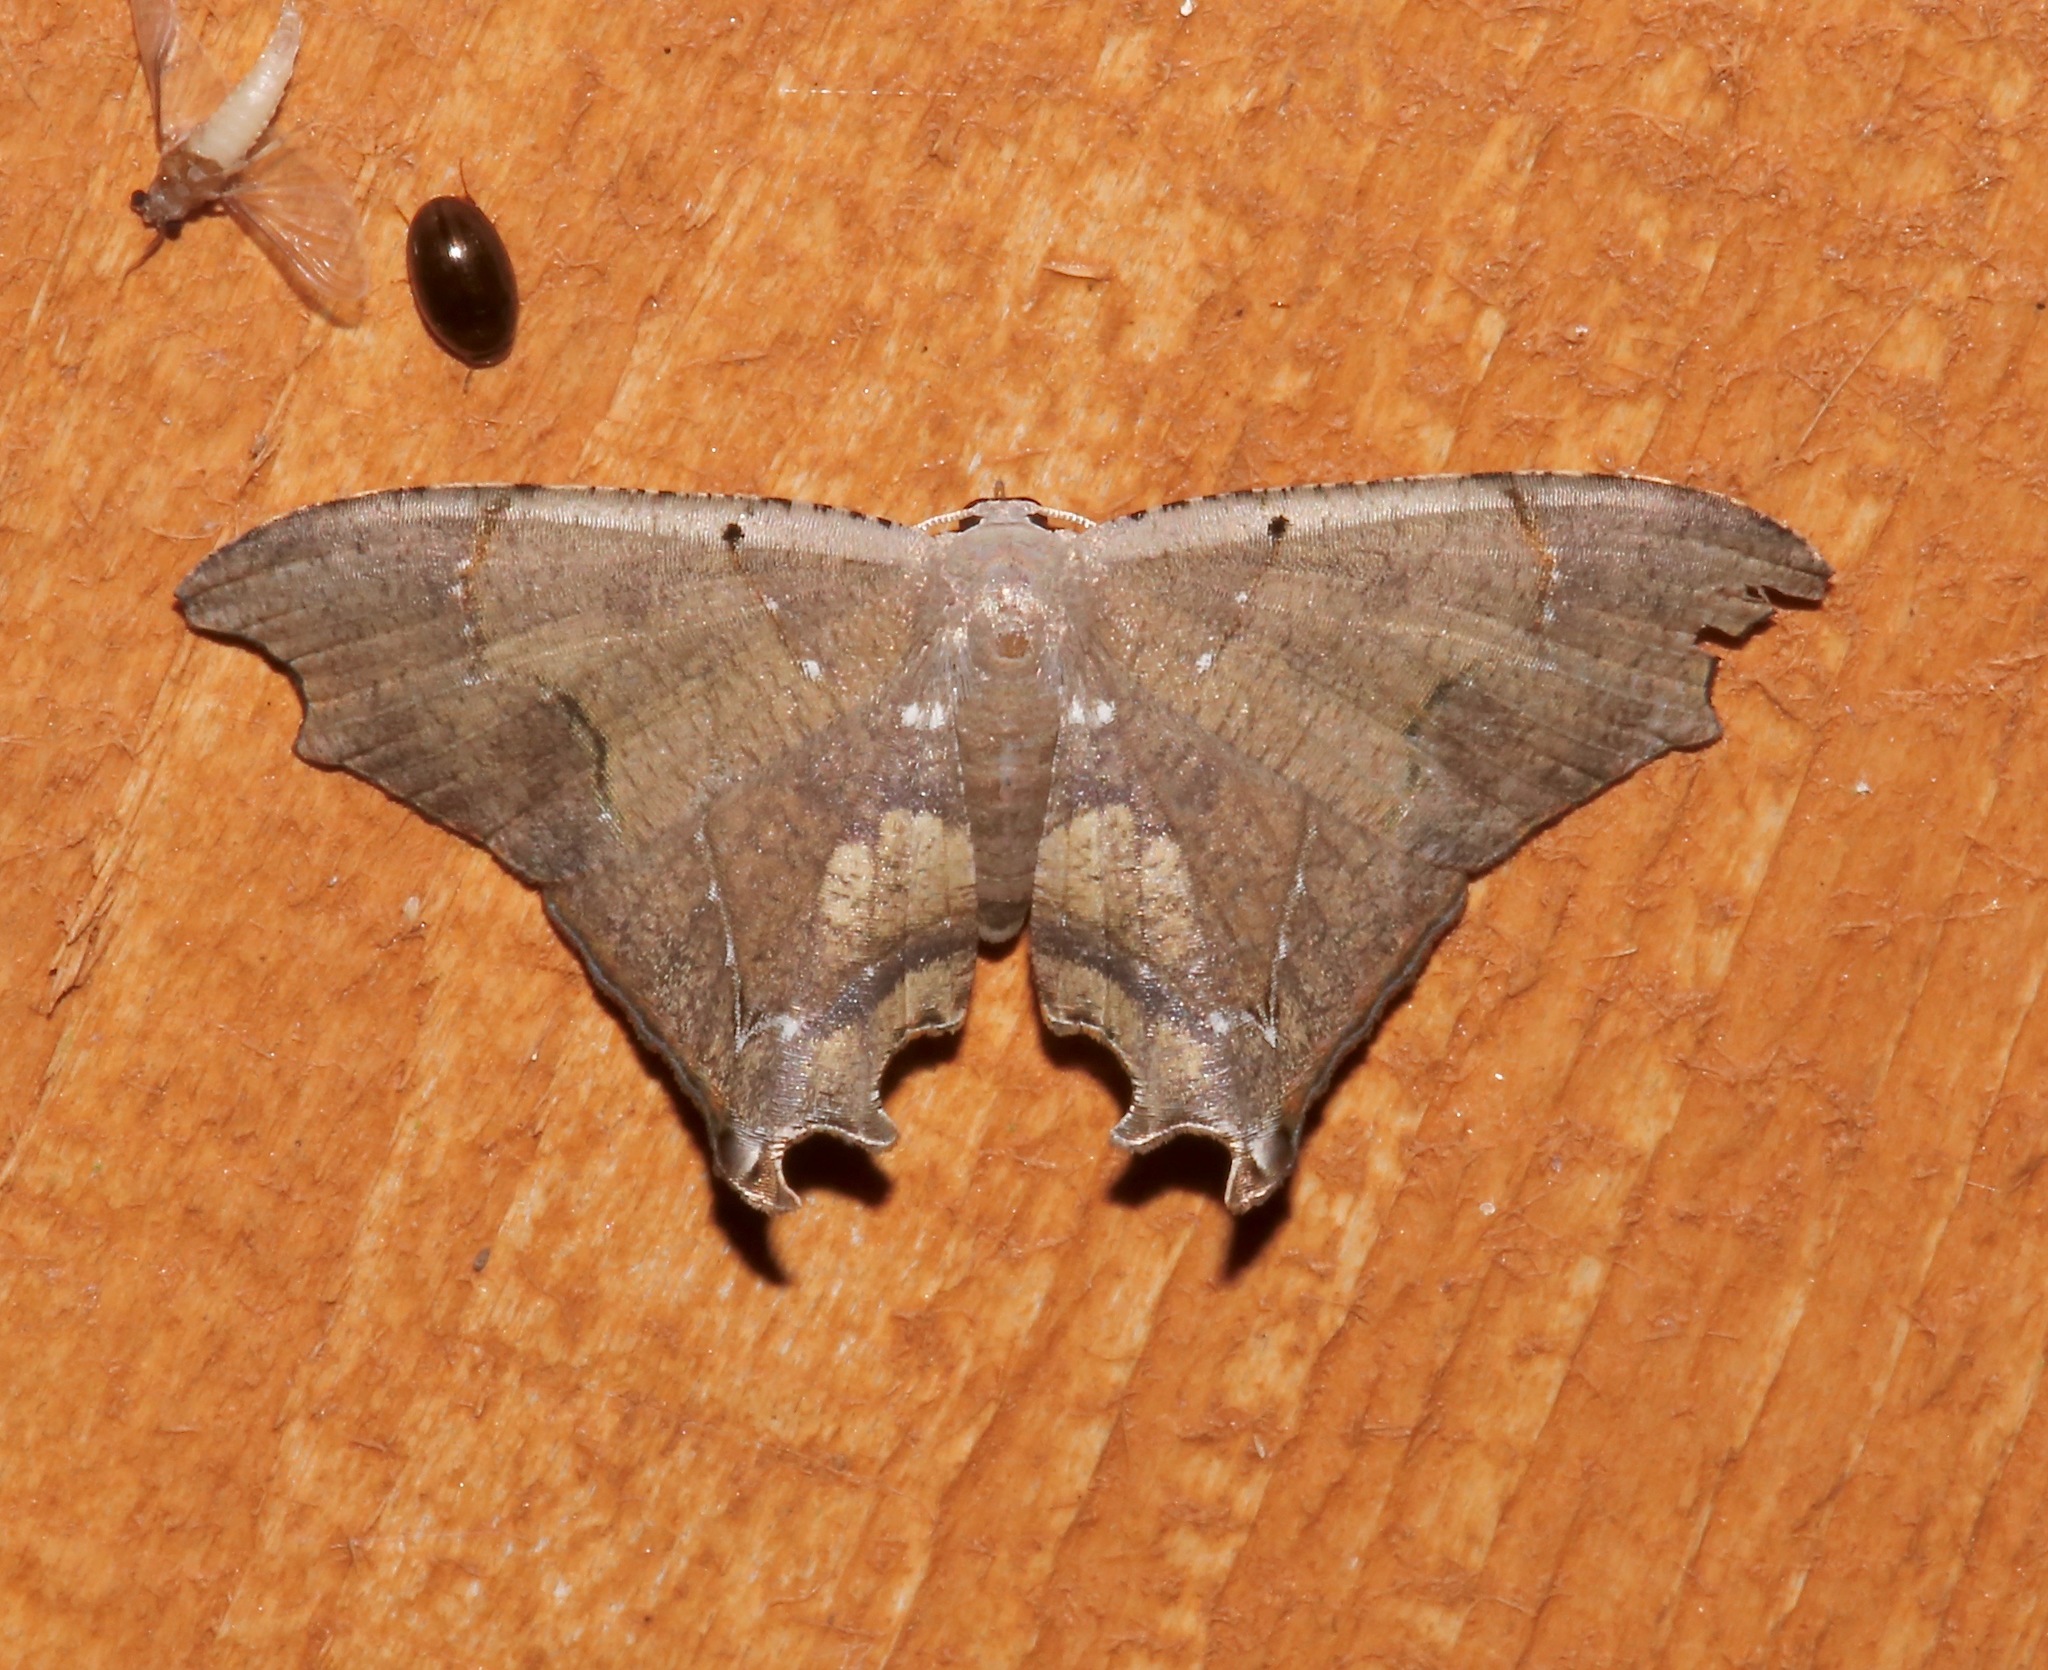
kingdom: Animalia
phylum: Arthropoda
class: Insecta
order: Lepidoptera
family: Uraniidae
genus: Trotorhombia
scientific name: Trotorhombia metachromata
